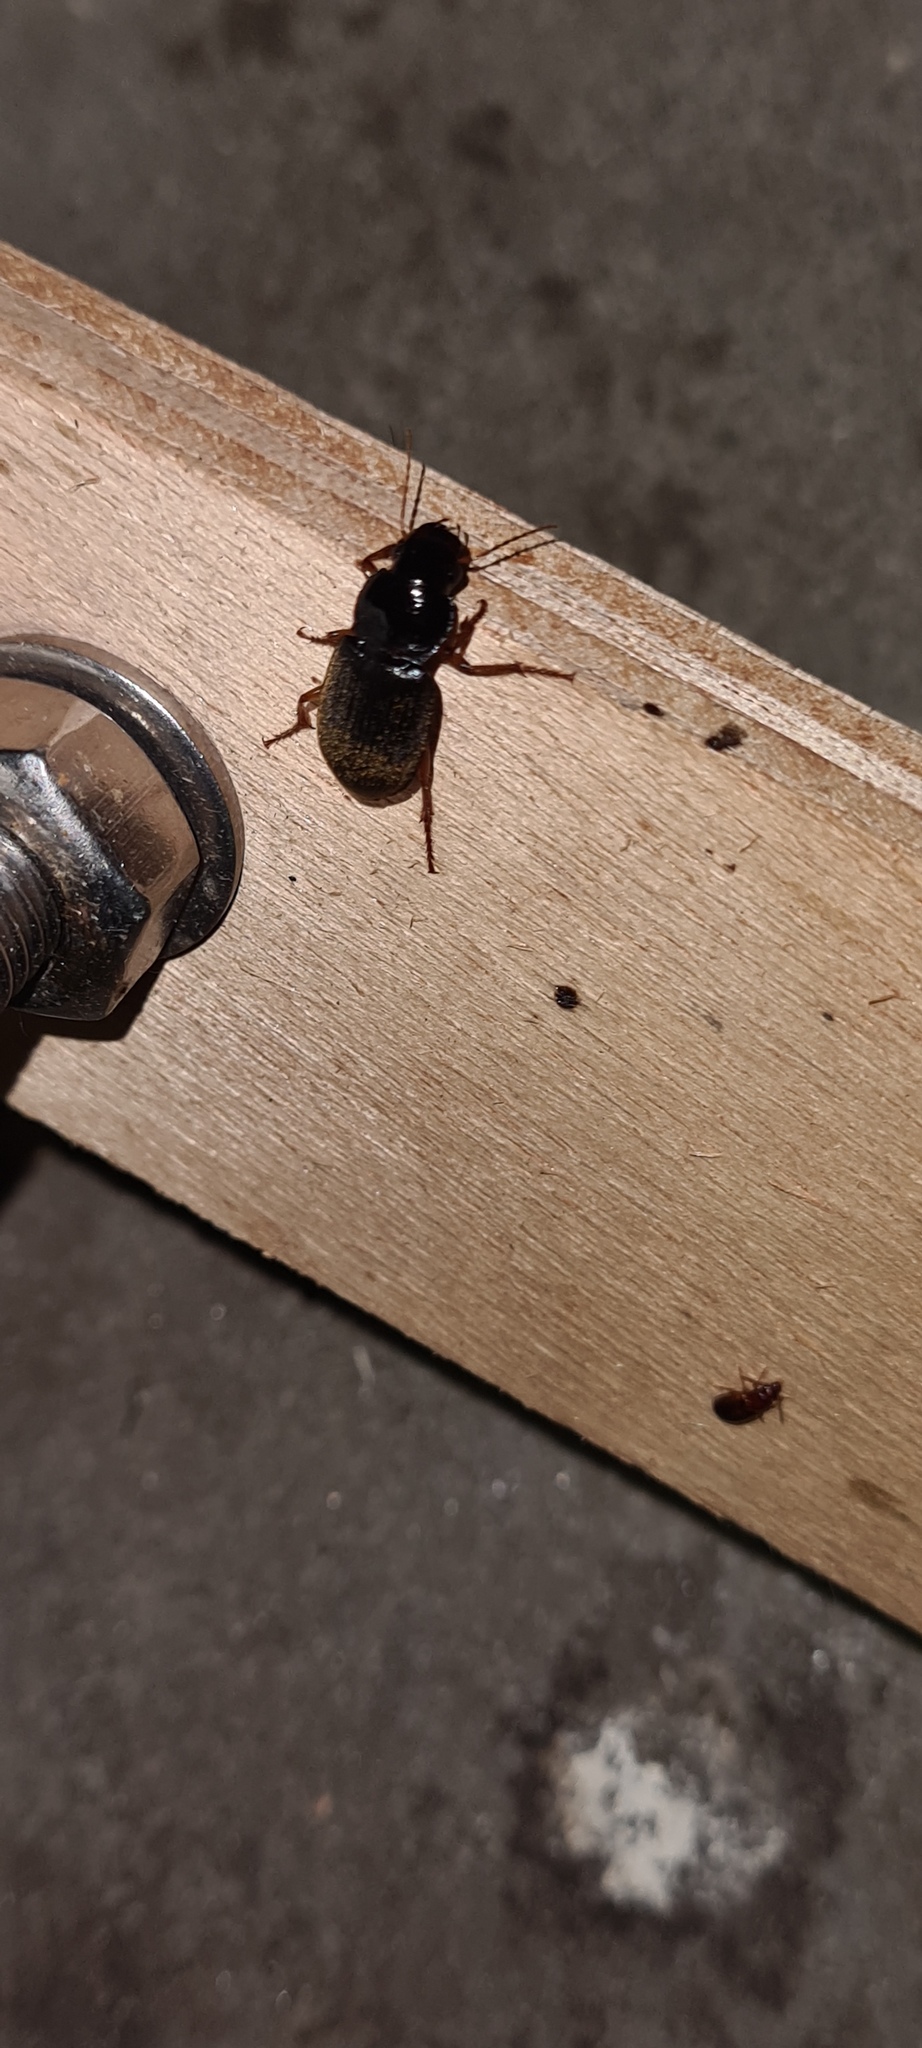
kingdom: Animalia
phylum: Arthropoda
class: Insecta
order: Coleoptera
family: Carabidae
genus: Harpalus
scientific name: Harpalus rufipes
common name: Strawberry harp ground beetle
